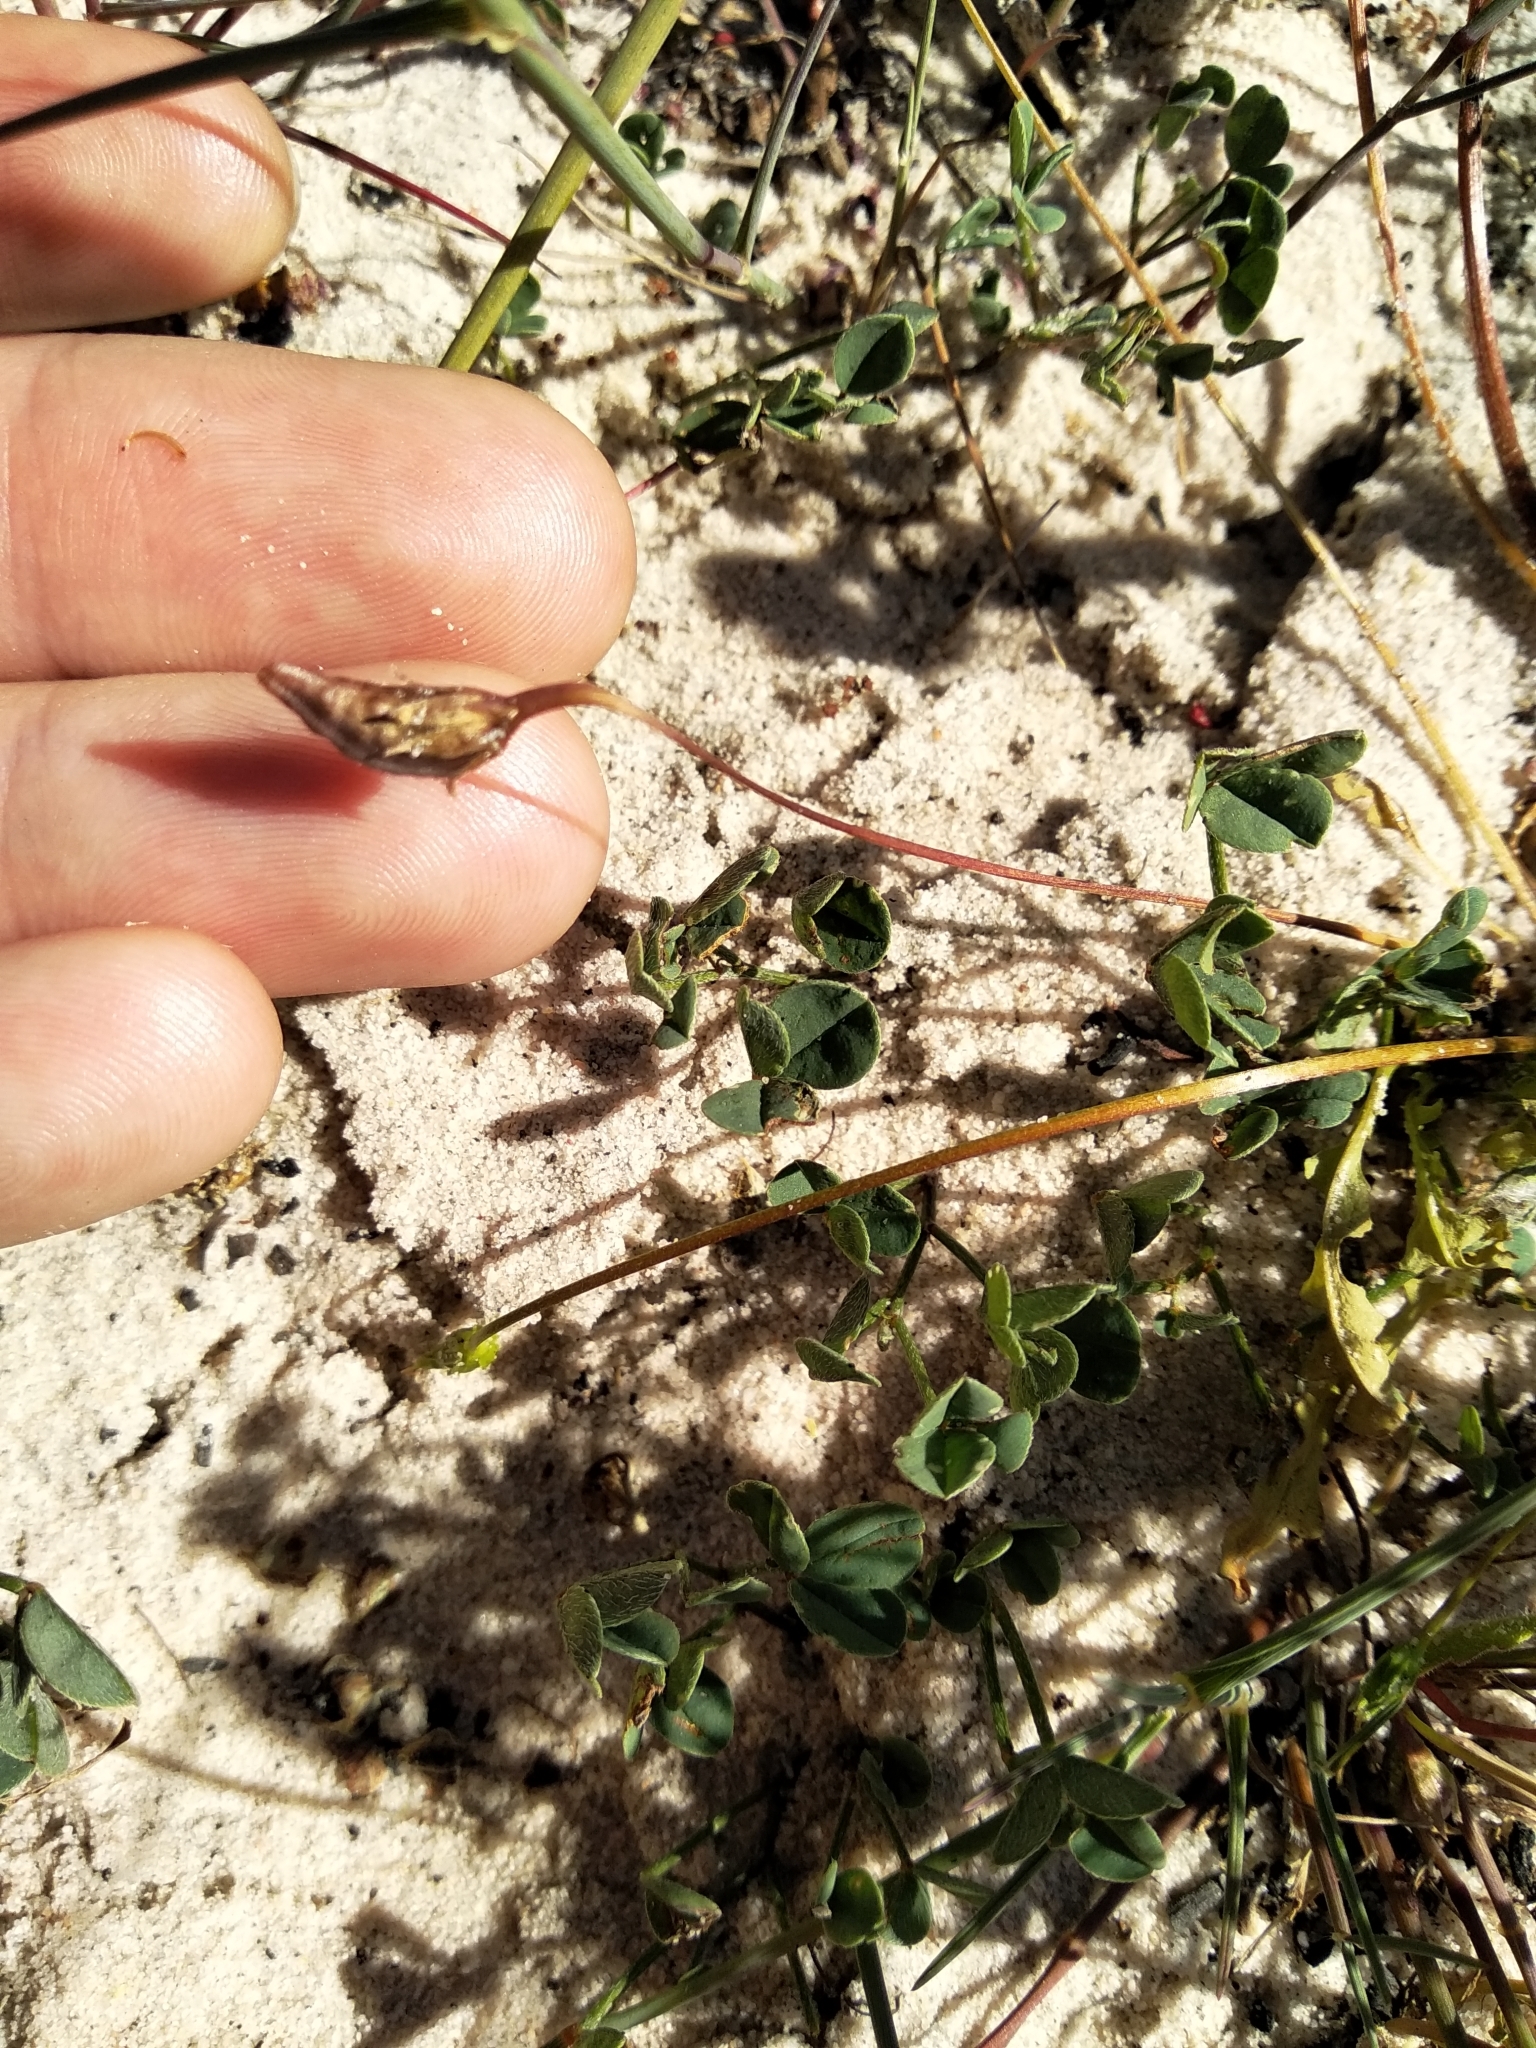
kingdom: Plantae
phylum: Tracheophyta
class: Magnoliopsida
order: Fabales
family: Fabaceae
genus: Indigofera
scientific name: Indigofera procumbens
